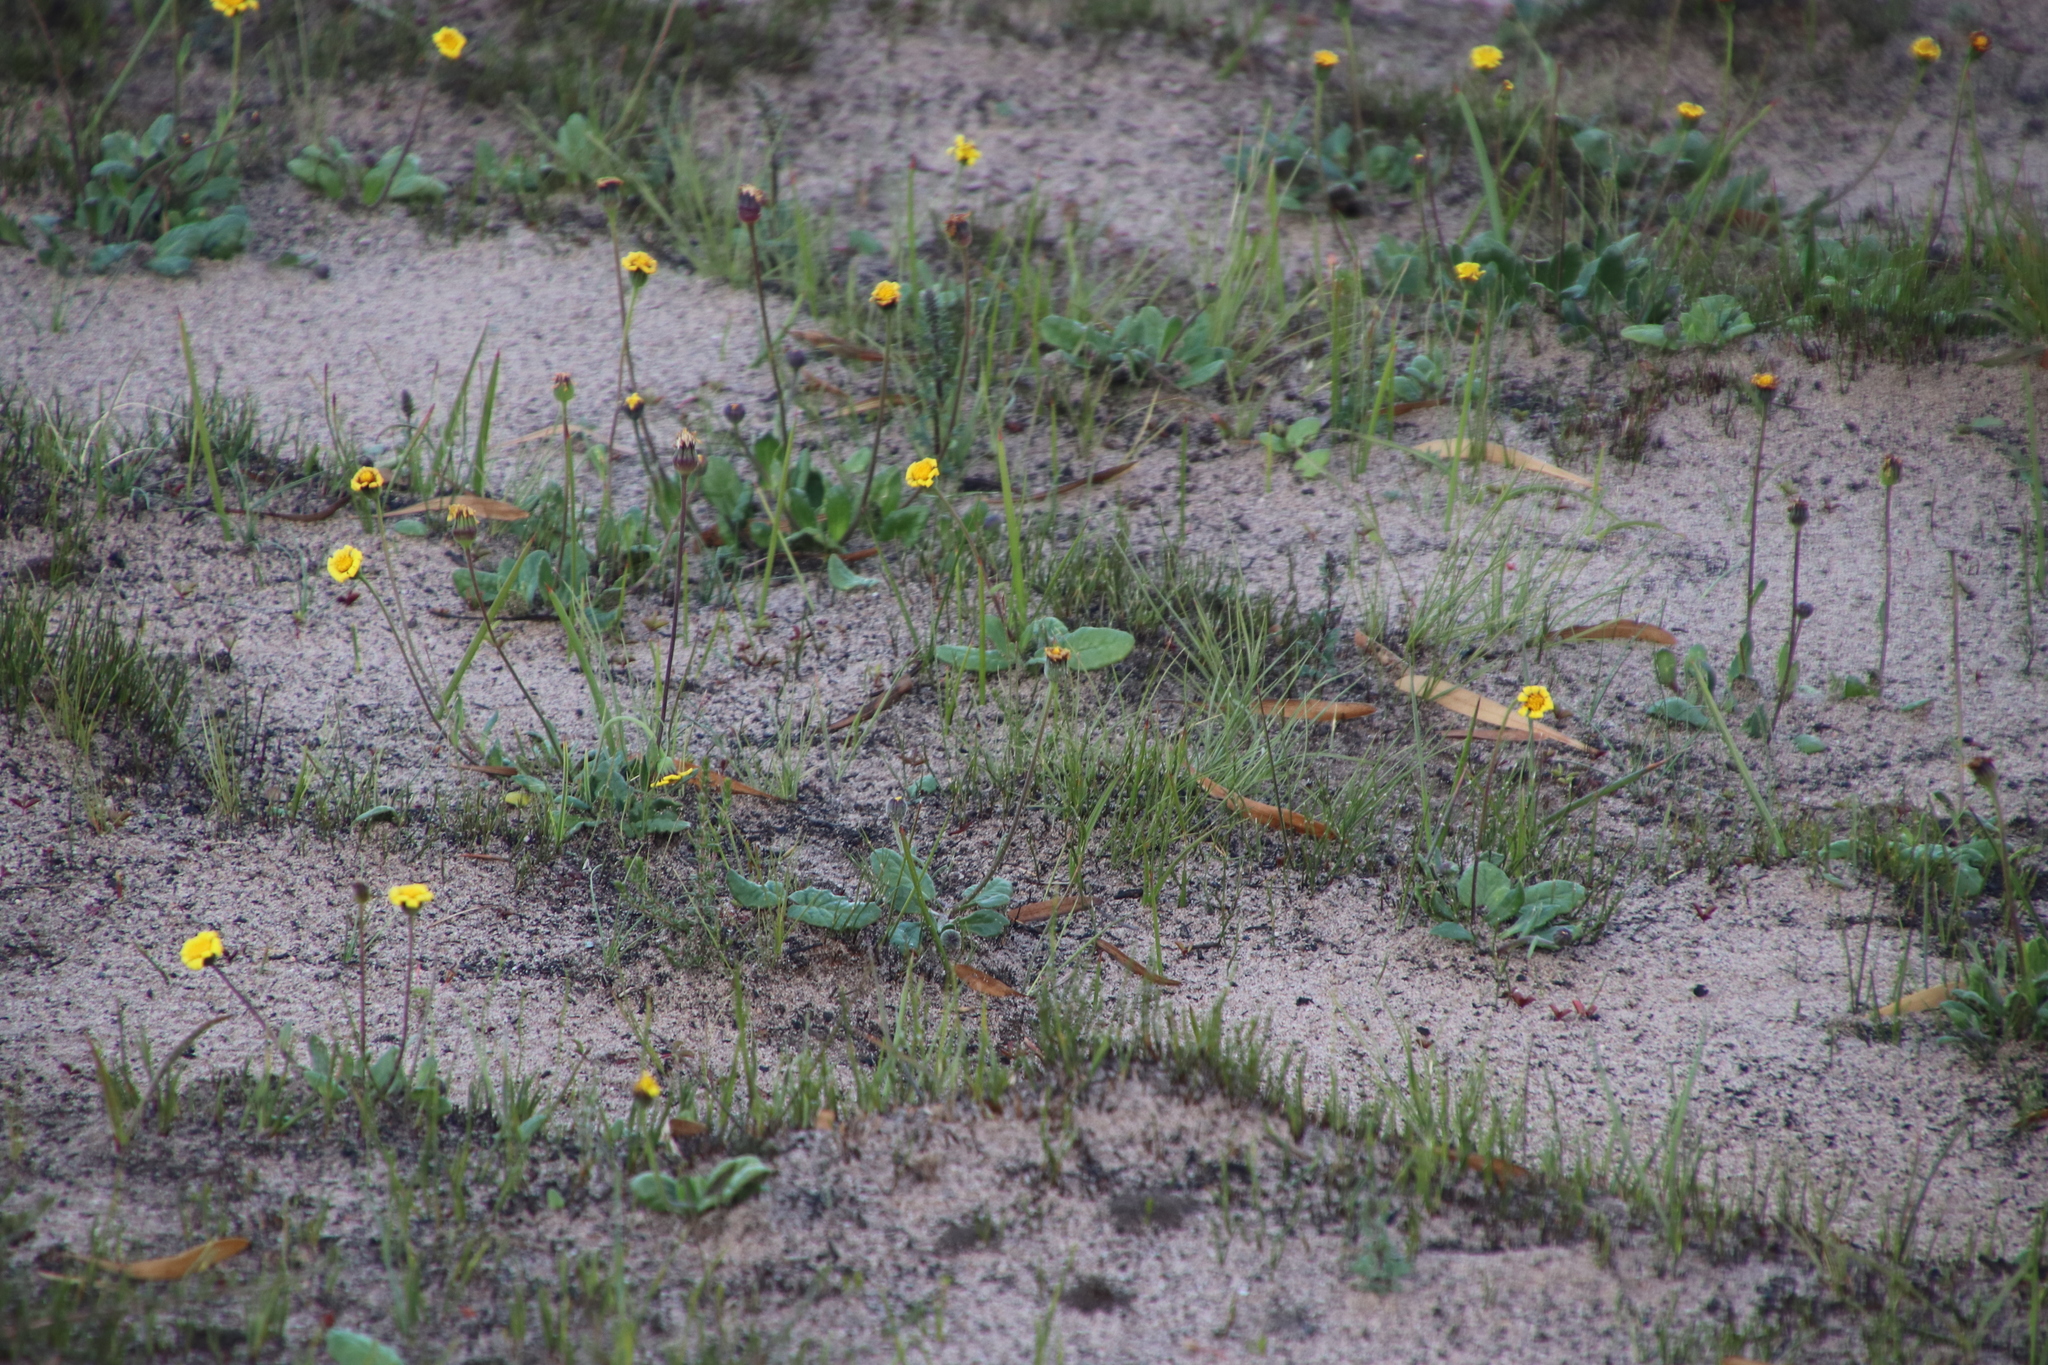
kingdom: Plantae
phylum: Tracheophyta
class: Magnoliopsida
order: Asterales
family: Asteraceae
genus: Othonna
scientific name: Othonna heterophylla
